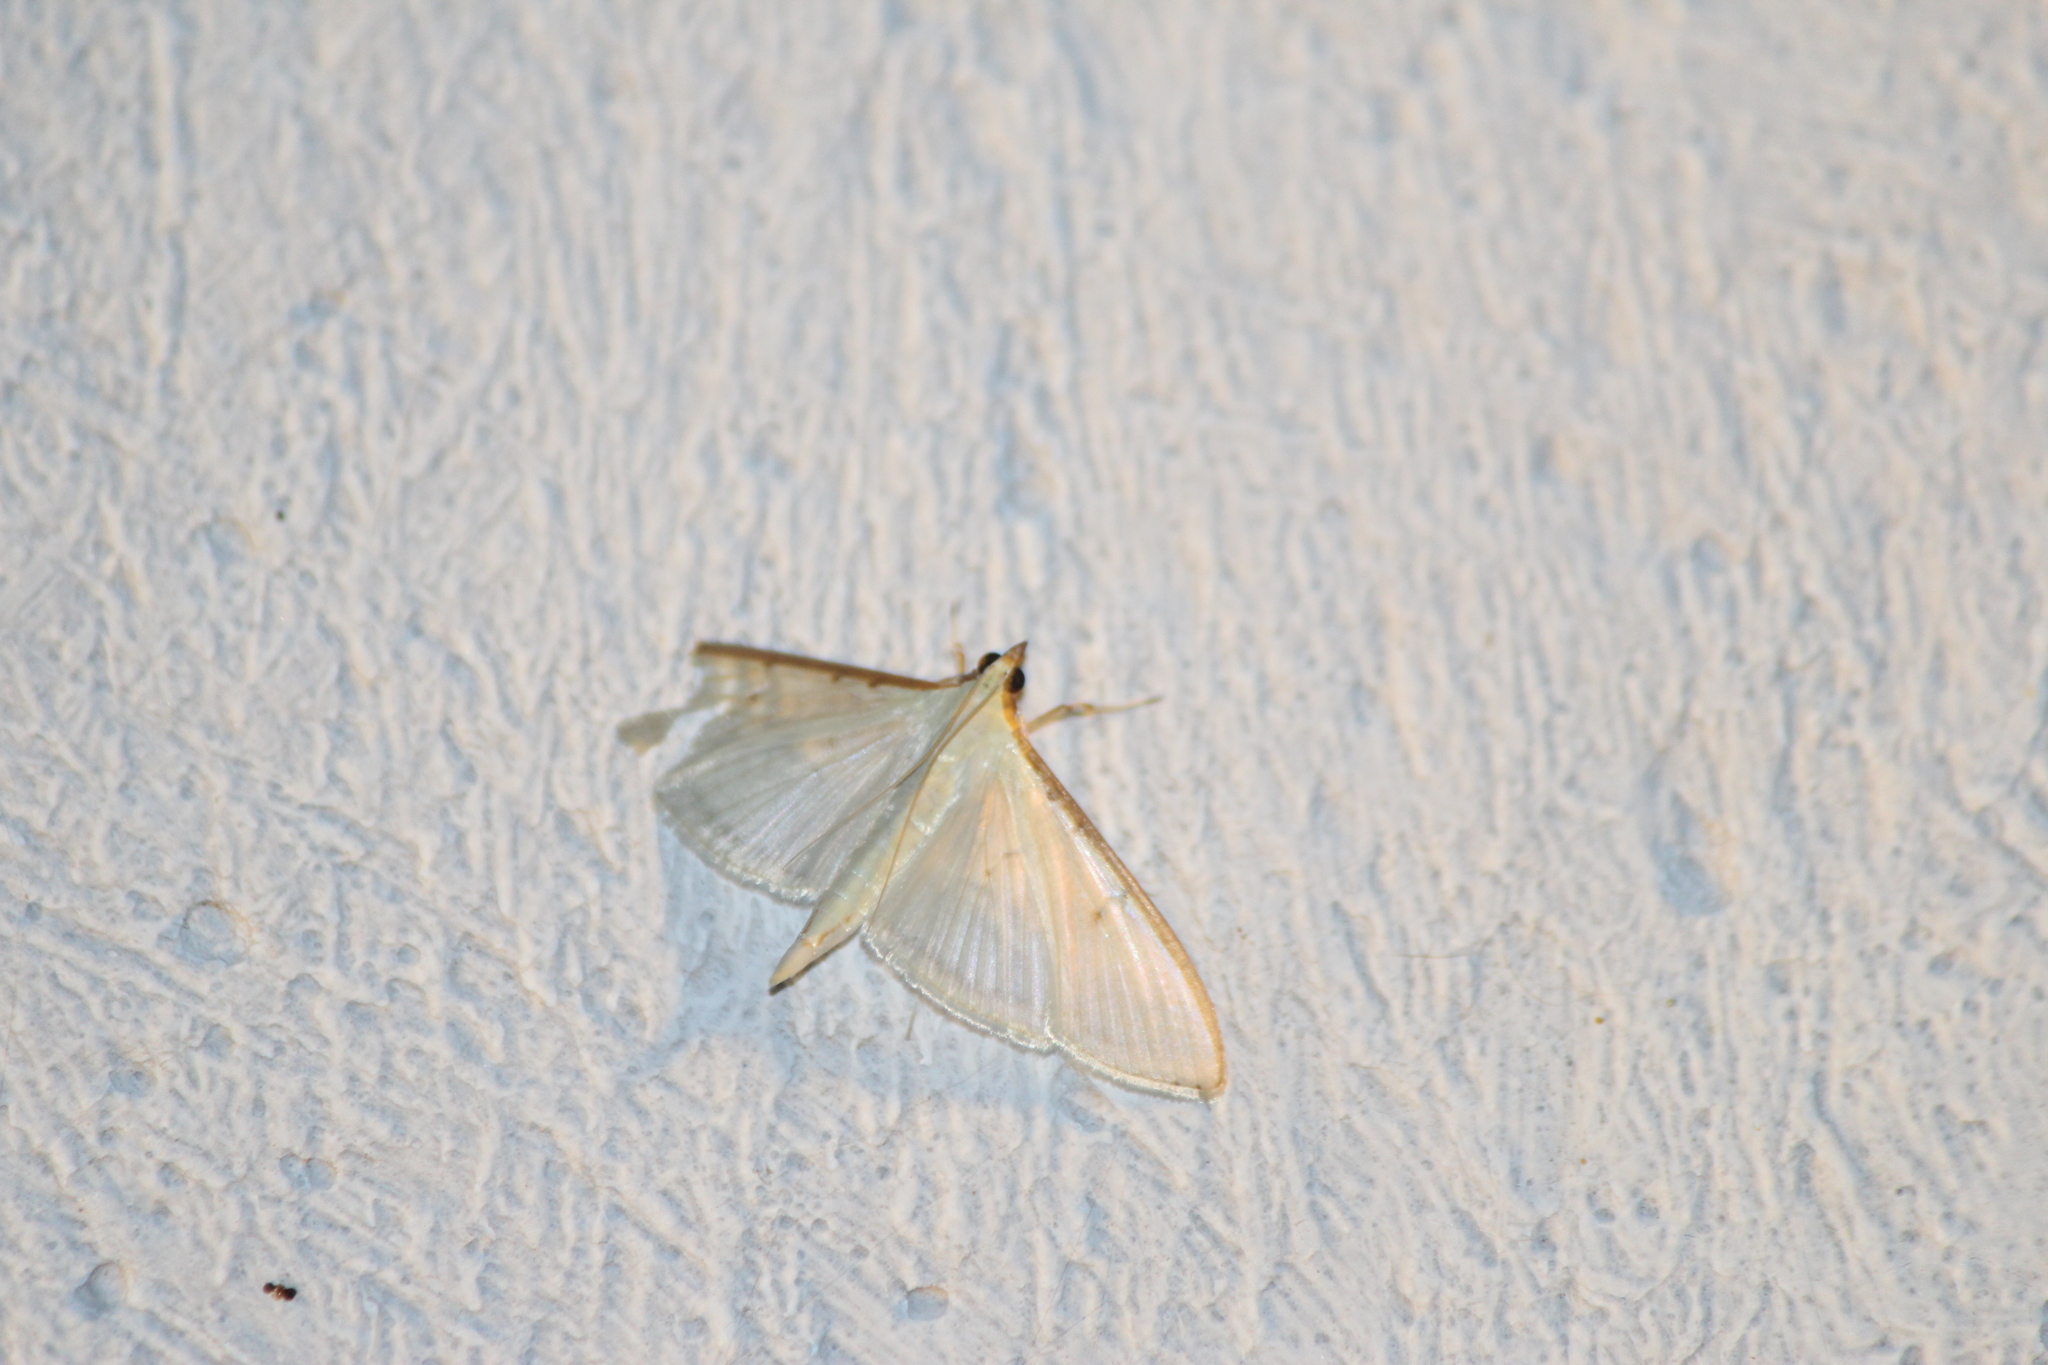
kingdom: Animalia
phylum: Arthropoda
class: Insecta
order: Lepidoptera
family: Crambidae
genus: Palpita
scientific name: Palpita quadristigmalis
